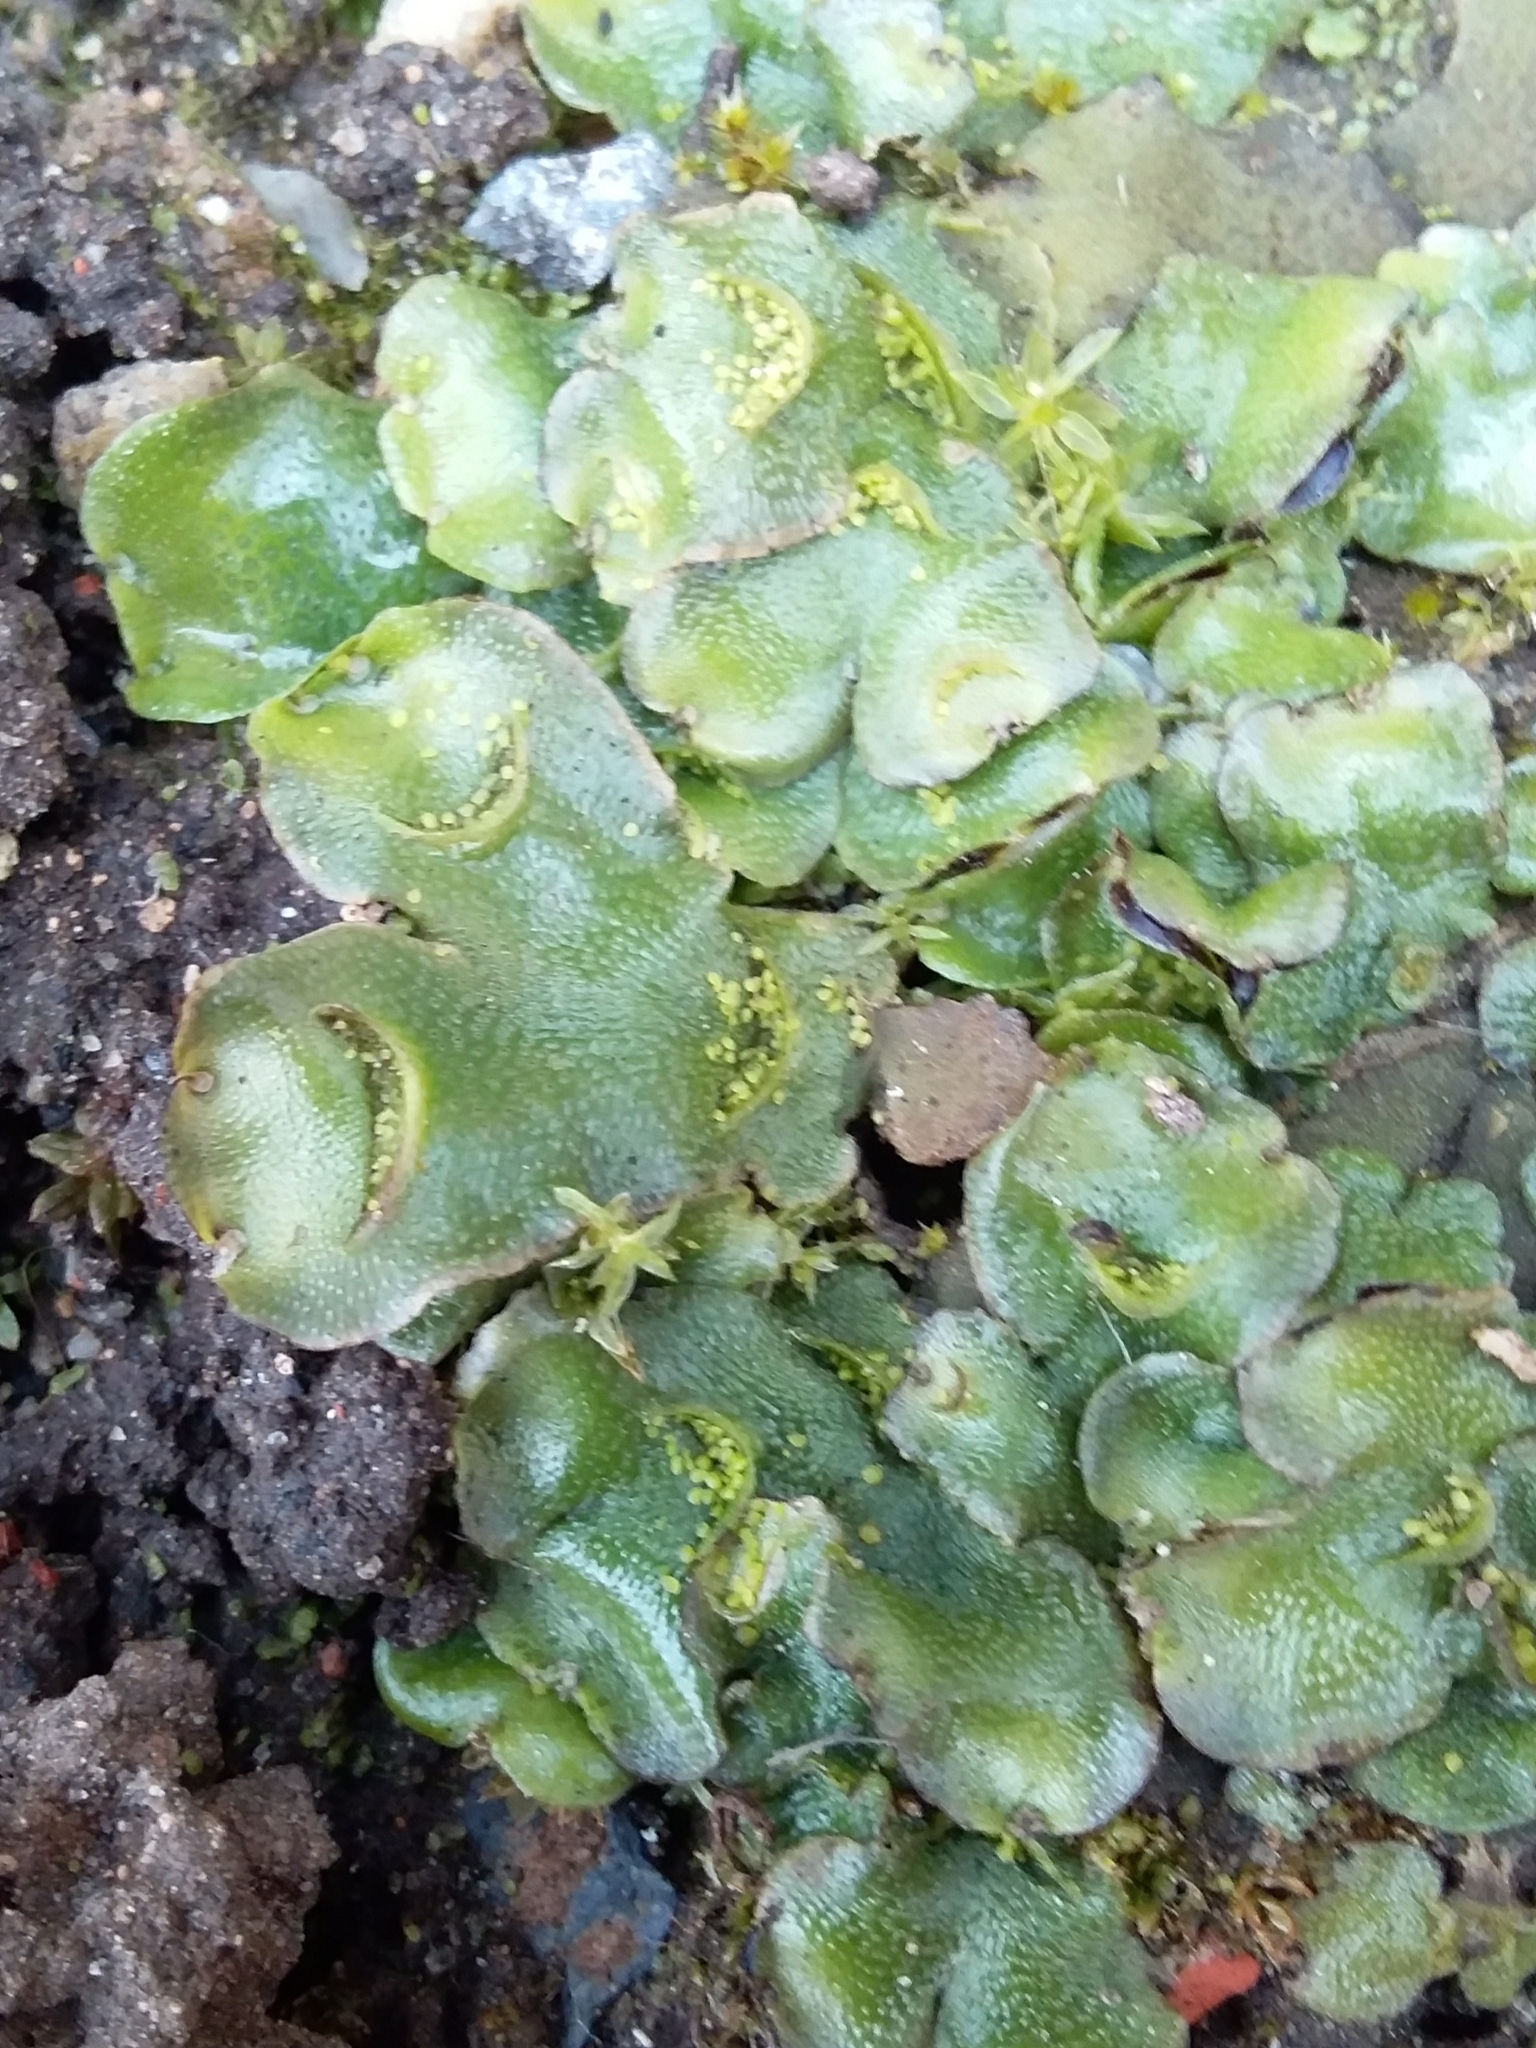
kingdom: Plantae
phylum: Marchantiophyta
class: Marchantiopsida
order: Lunulariales
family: Lunulariaceae
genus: Lunularia
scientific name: Lunularia cruciata
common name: Crescent-cup liverwort
